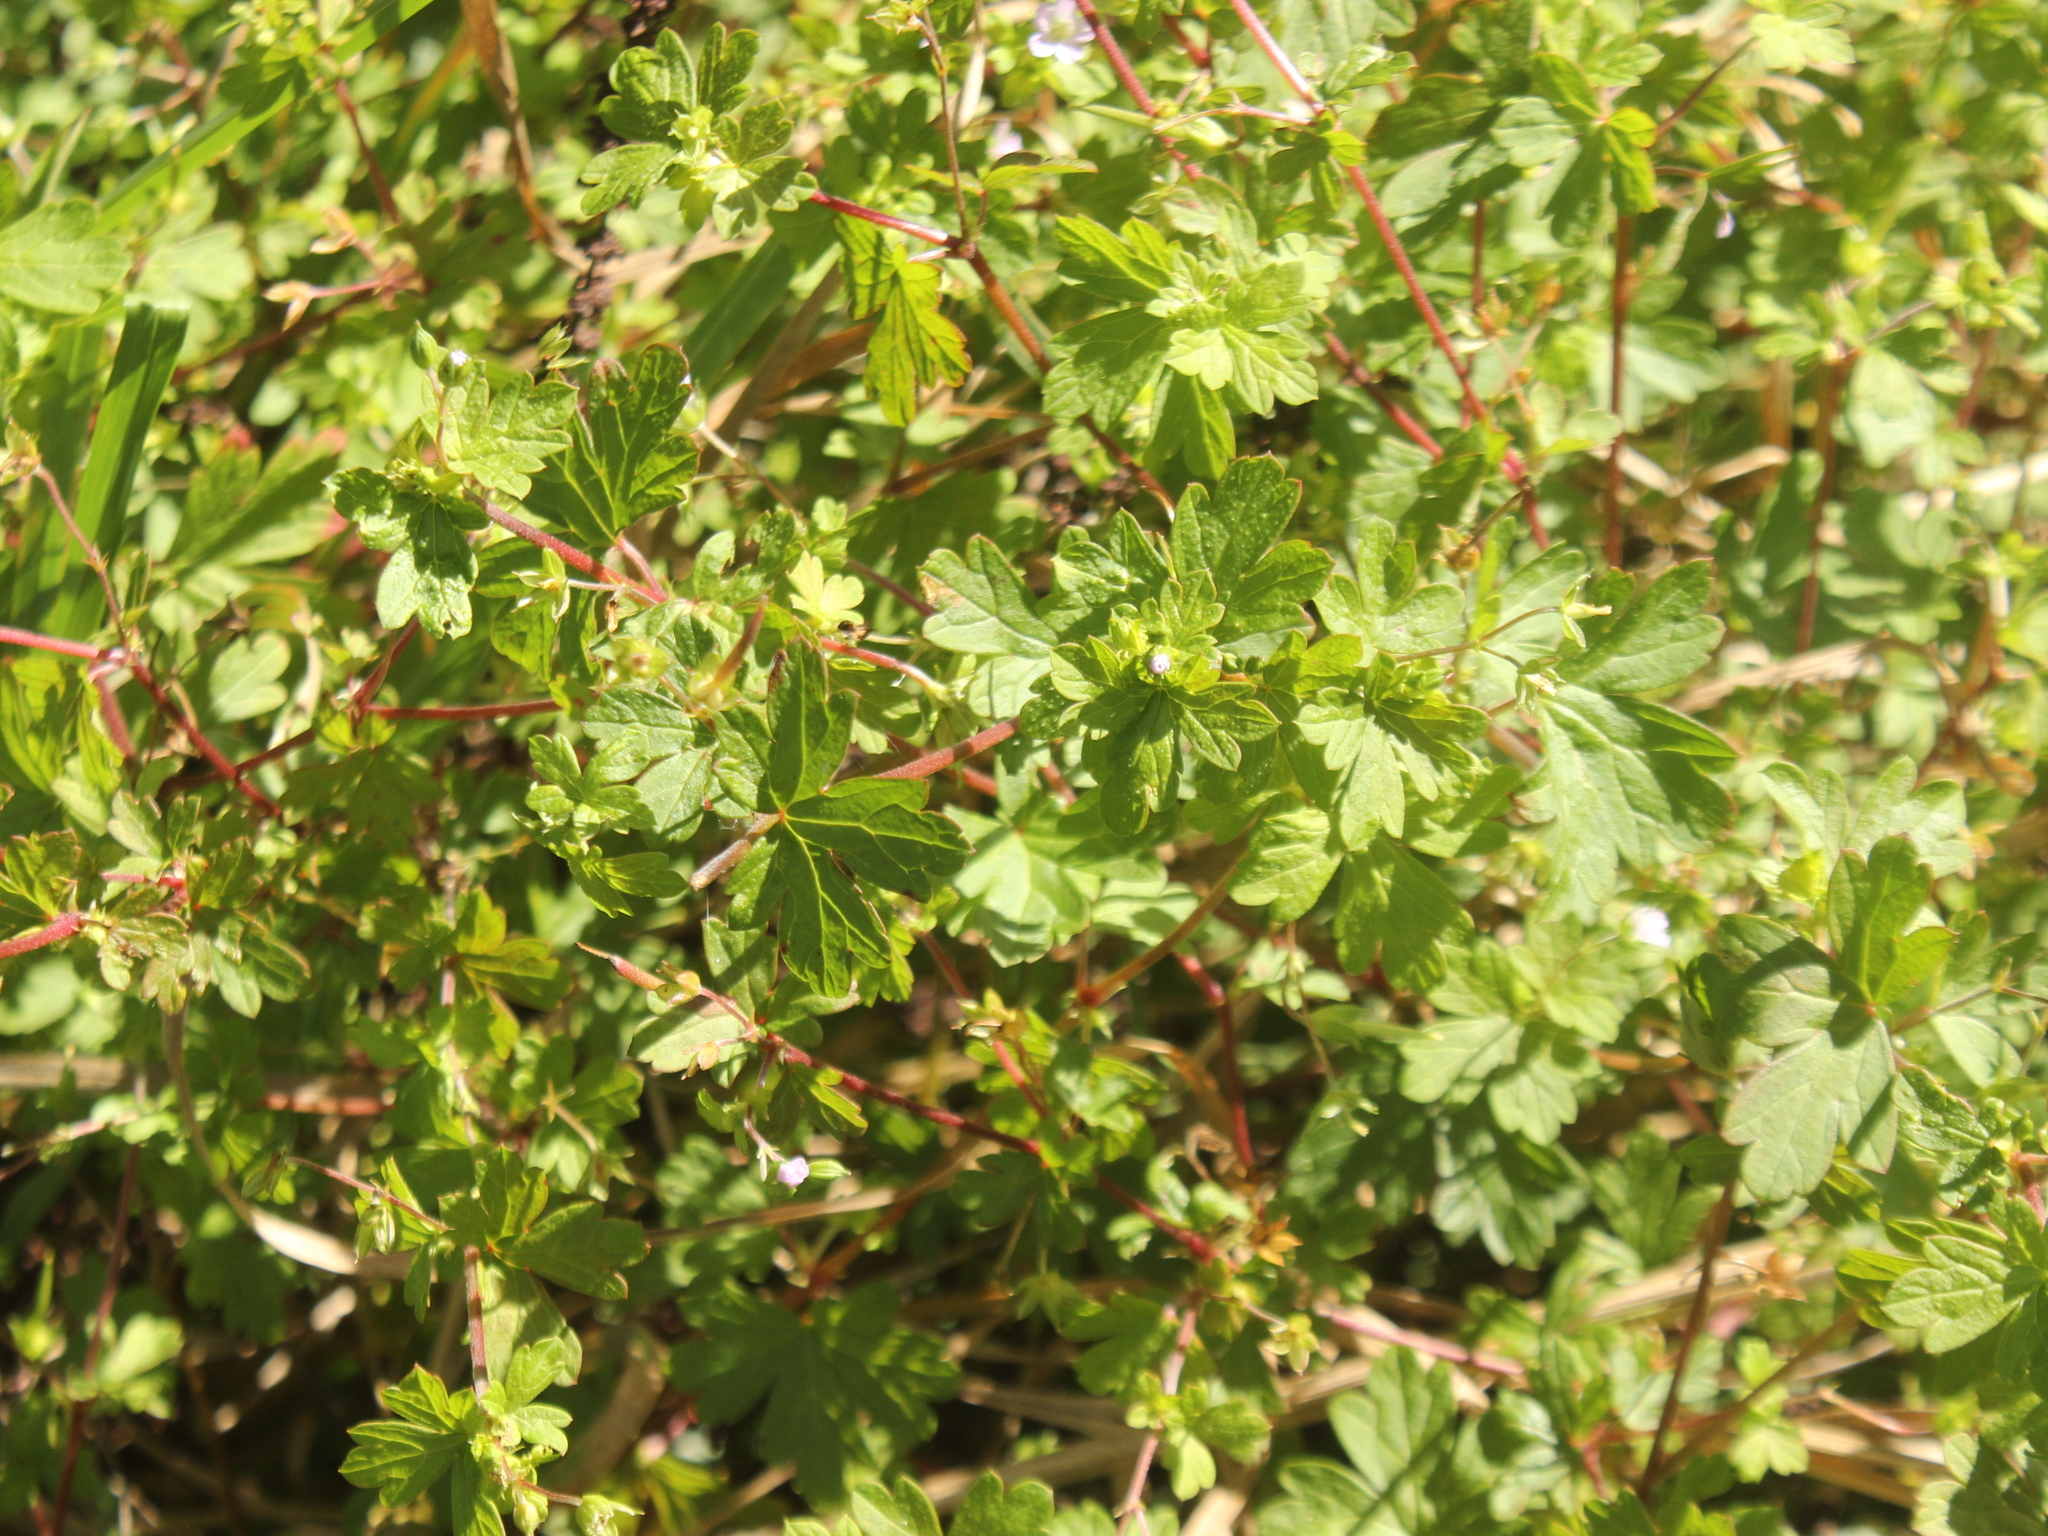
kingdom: Plantae
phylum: Tracheophyta
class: Magnoliopsida
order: Geraniales
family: Geraniaceae
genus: Geranium
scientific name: Geranium homeanum
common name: Australasian geranium
